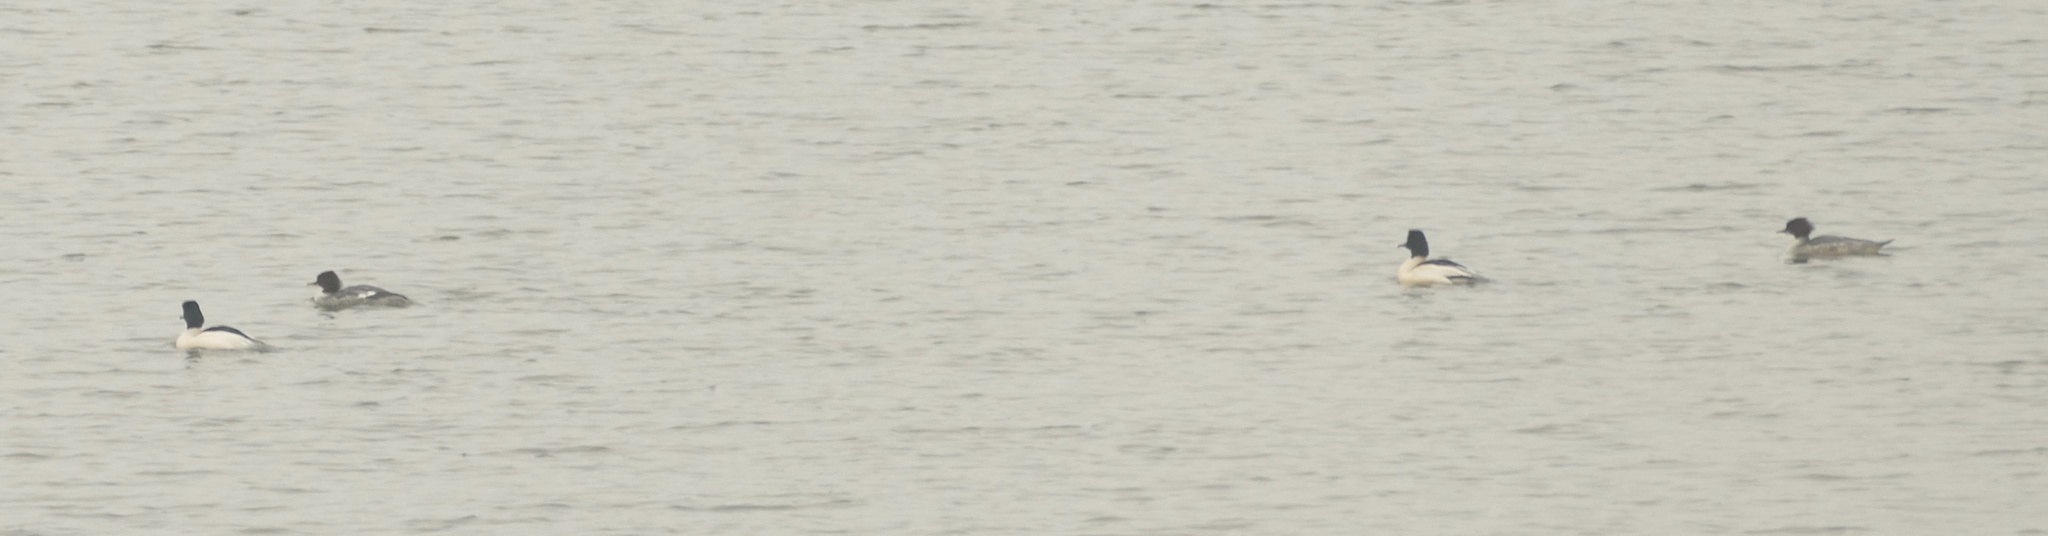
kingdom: Animalia
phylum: Chordata
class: Aves
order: Anseriformes
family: Anatidae
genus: Mergus
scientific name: Mergus merganser
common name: Common merganser
